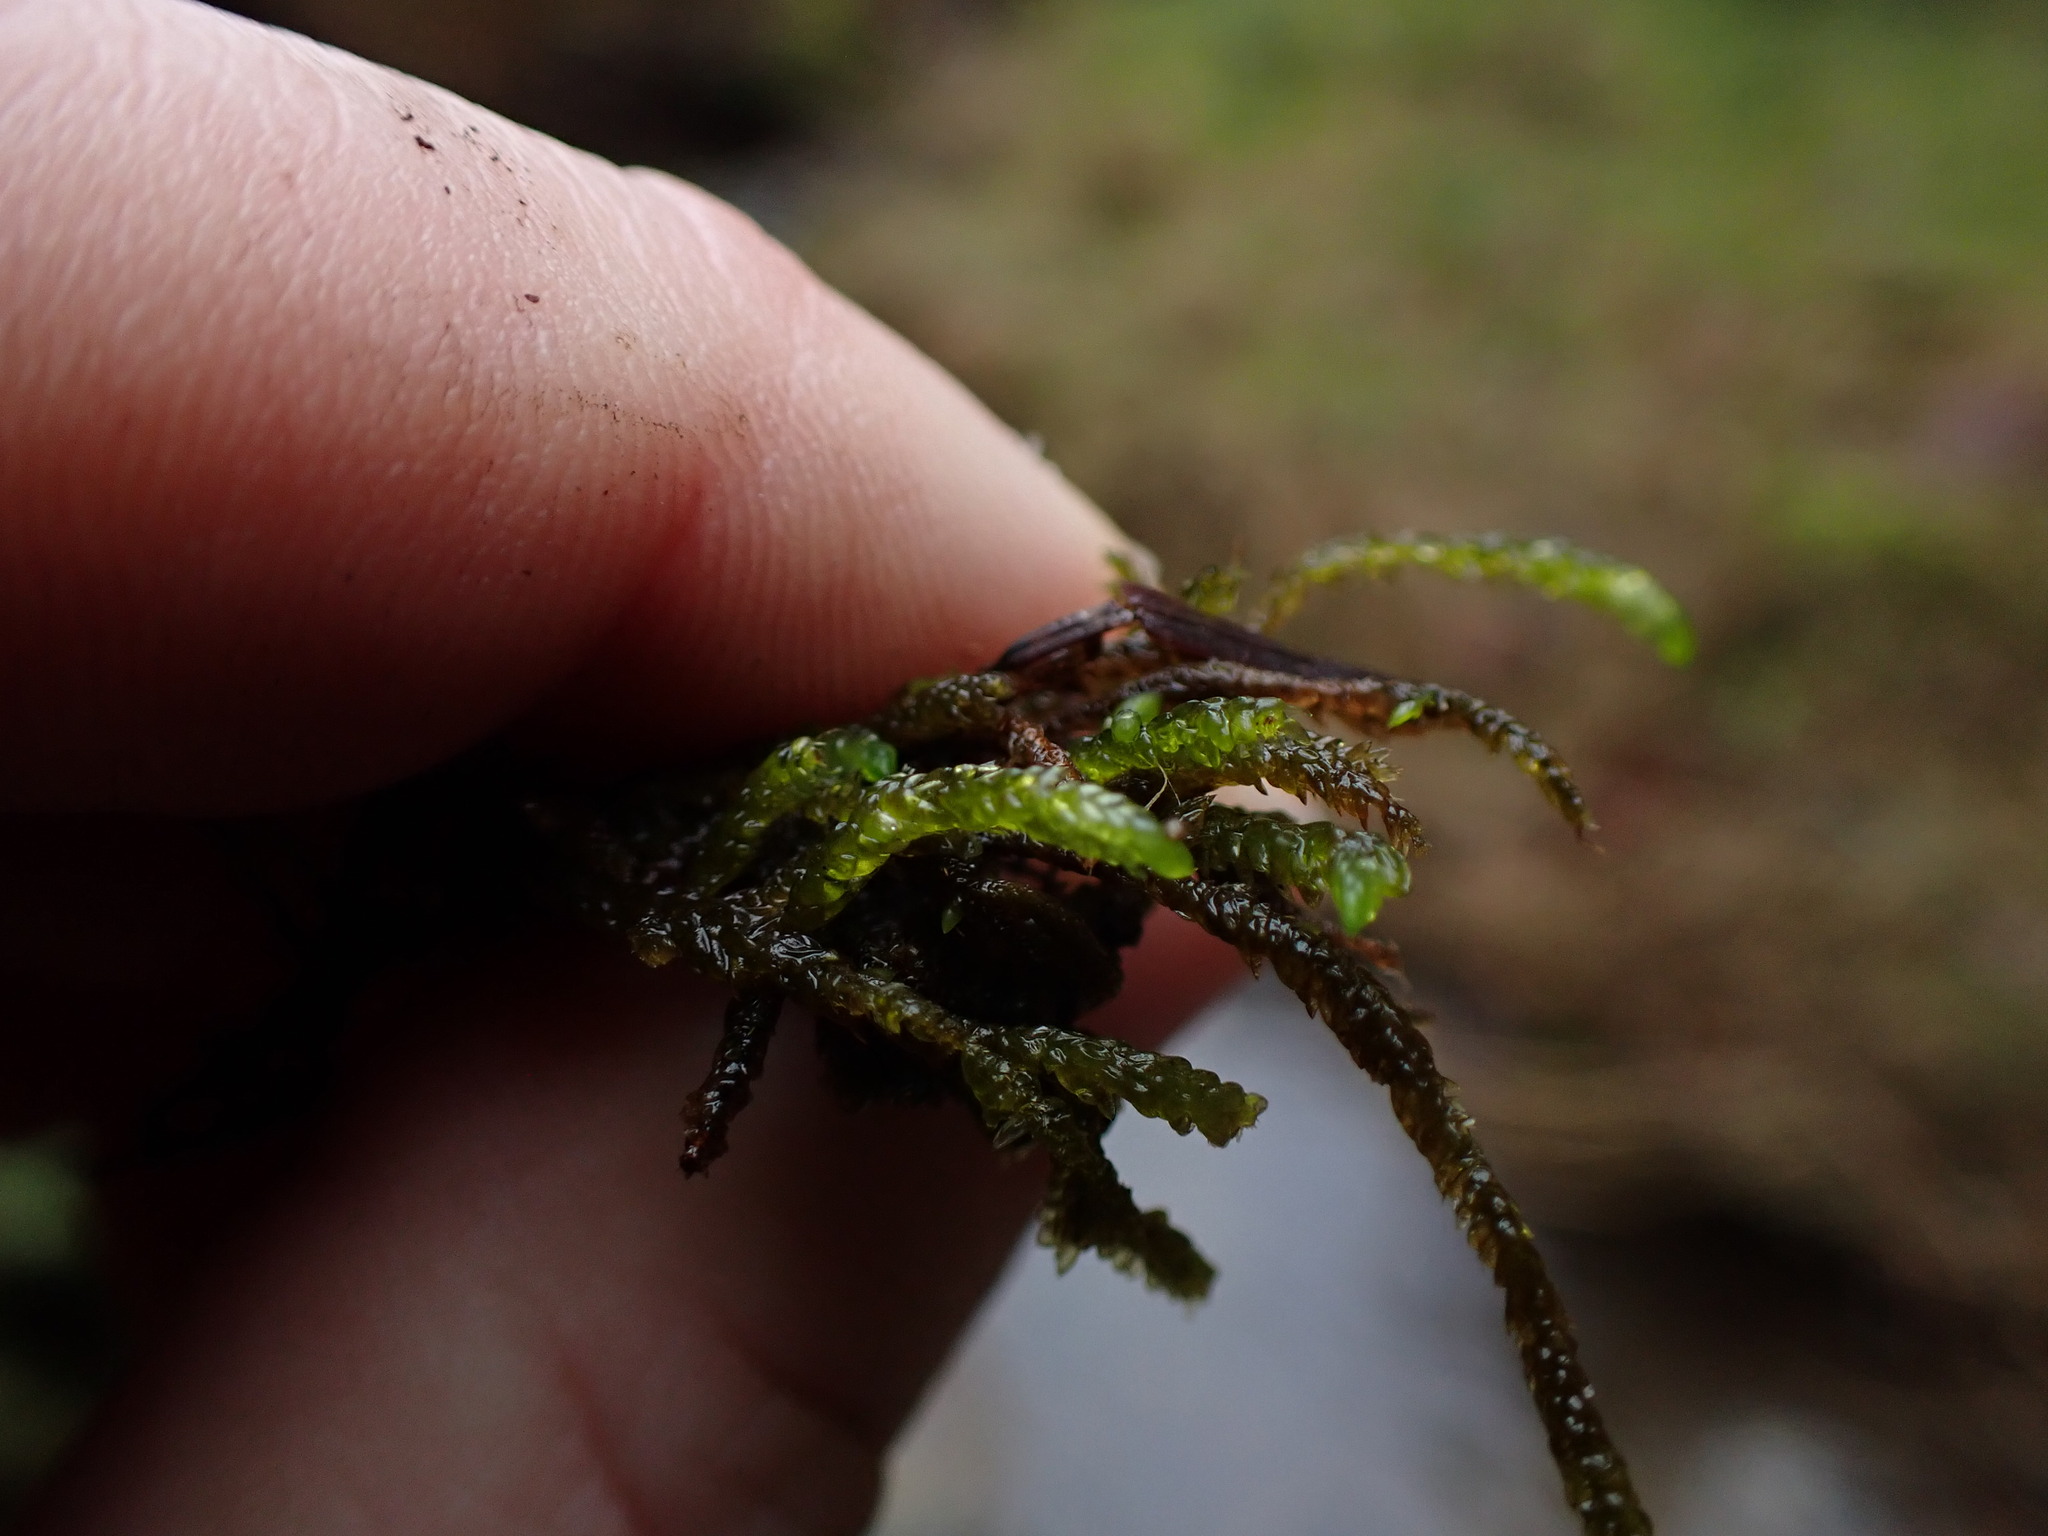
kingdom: Plantae
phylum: Bryophyta
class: Bryopsida
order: Hypnales
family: Brachytheciaceae
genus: Scleropodium
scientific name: Scleropodium obtusifolium
